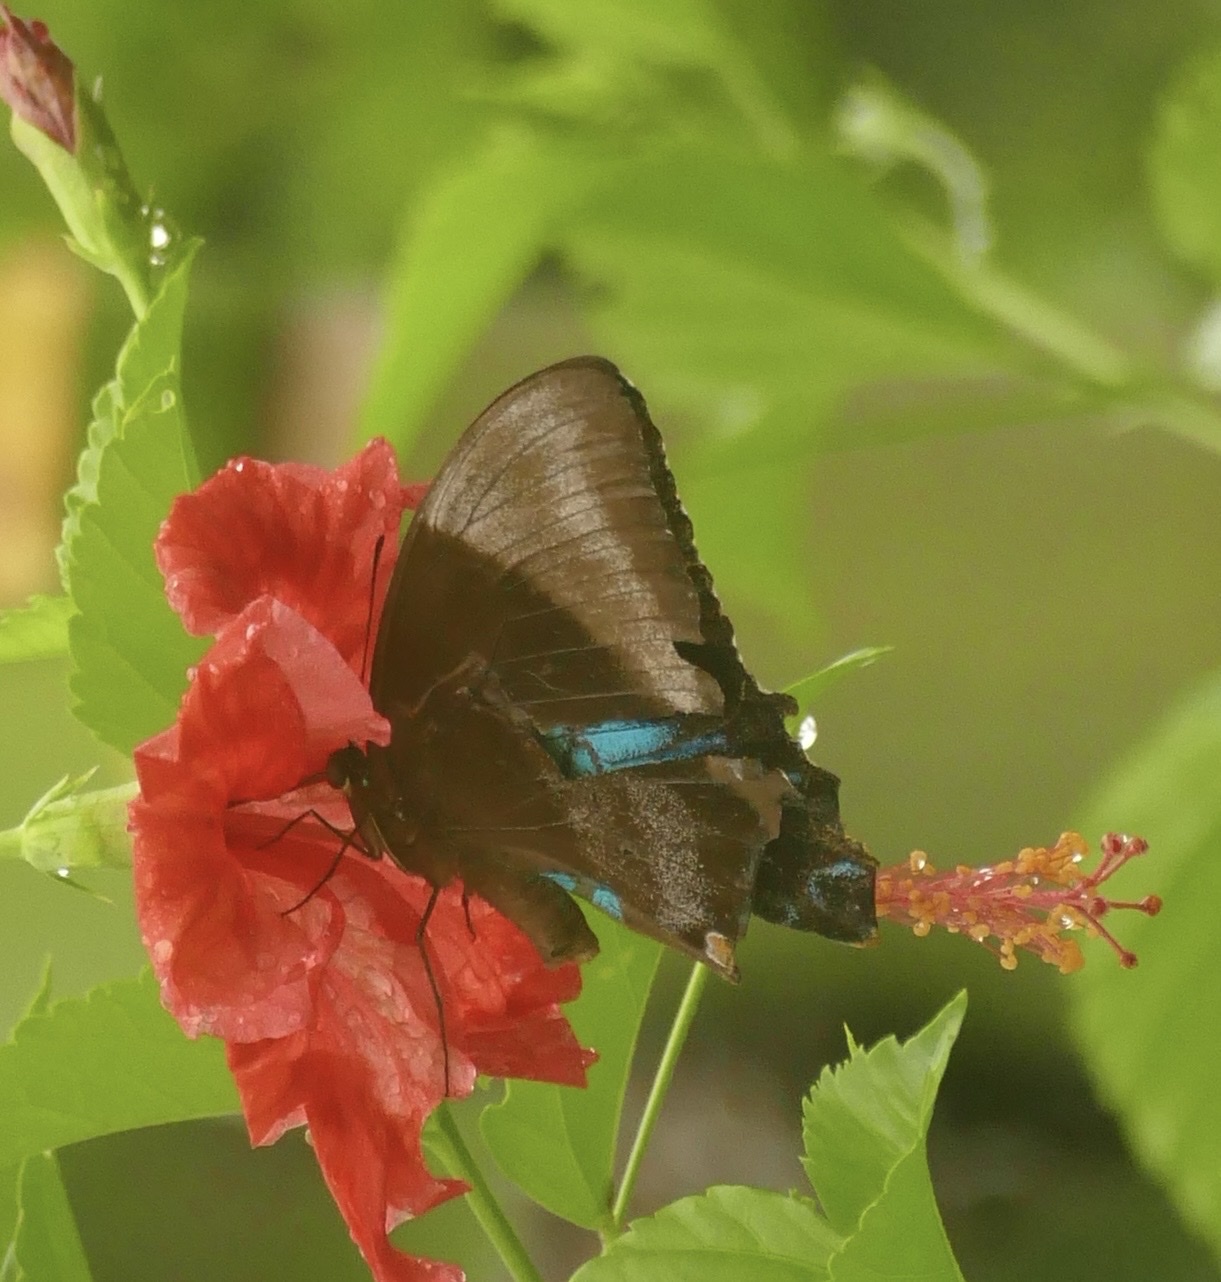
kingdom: Animalia
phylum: Arthropoda
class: Insecta
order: Lepidoptera
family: Papilionidae
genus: Papilio
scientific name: Papilio ulysses
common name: Blue emperor
